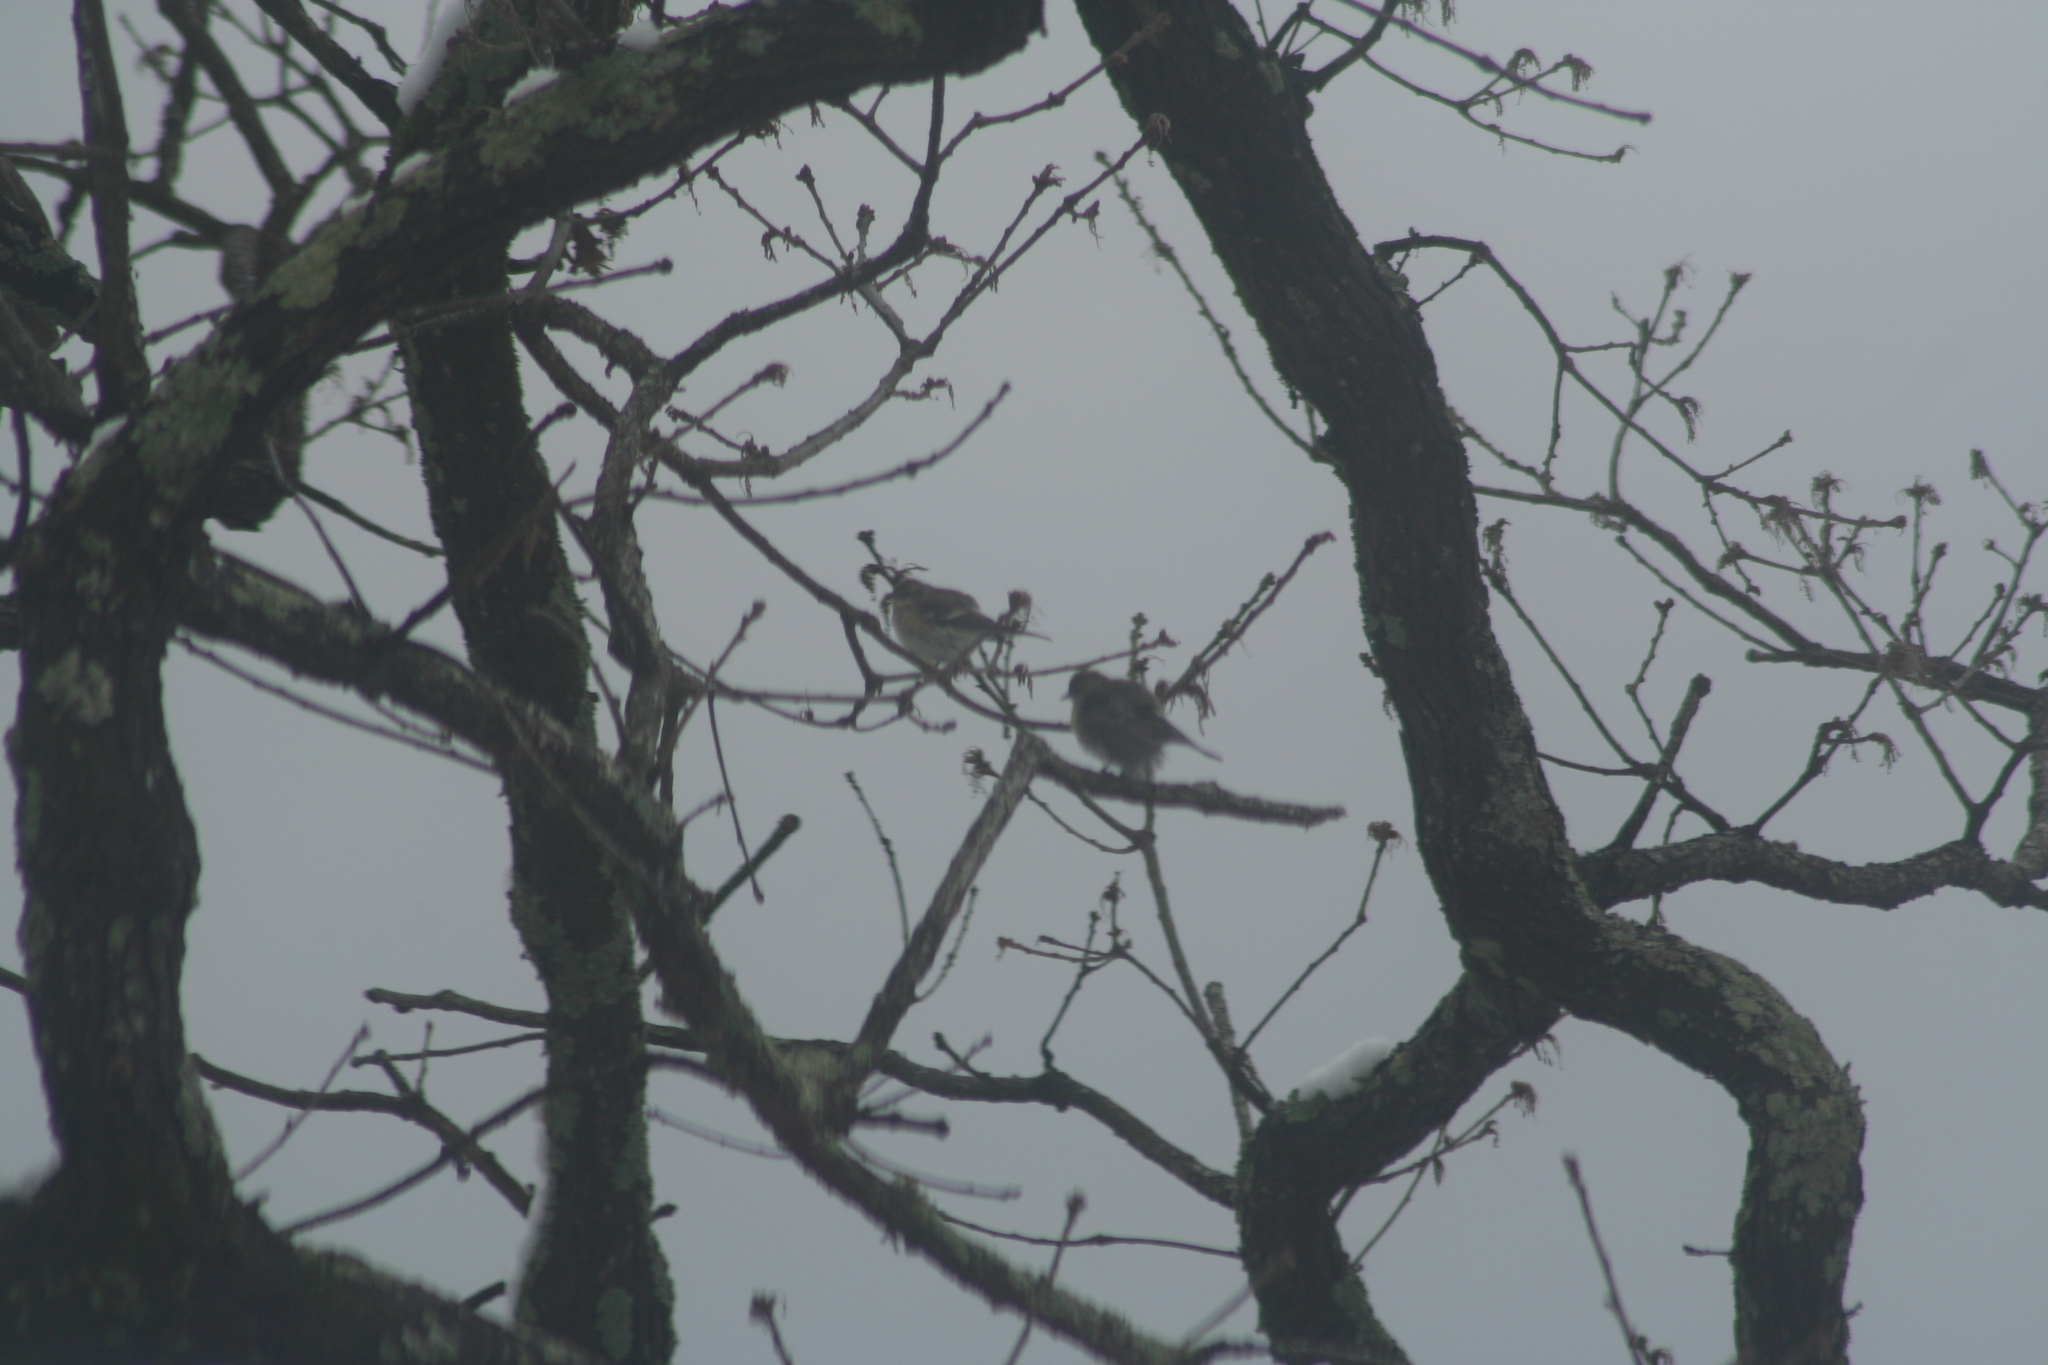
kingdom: Animalia
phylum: Chordata
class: Aves
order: Passeriformes
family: Parulidae
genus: Setophaga
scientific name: Setophaga coronata
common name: Myrtle warbler
